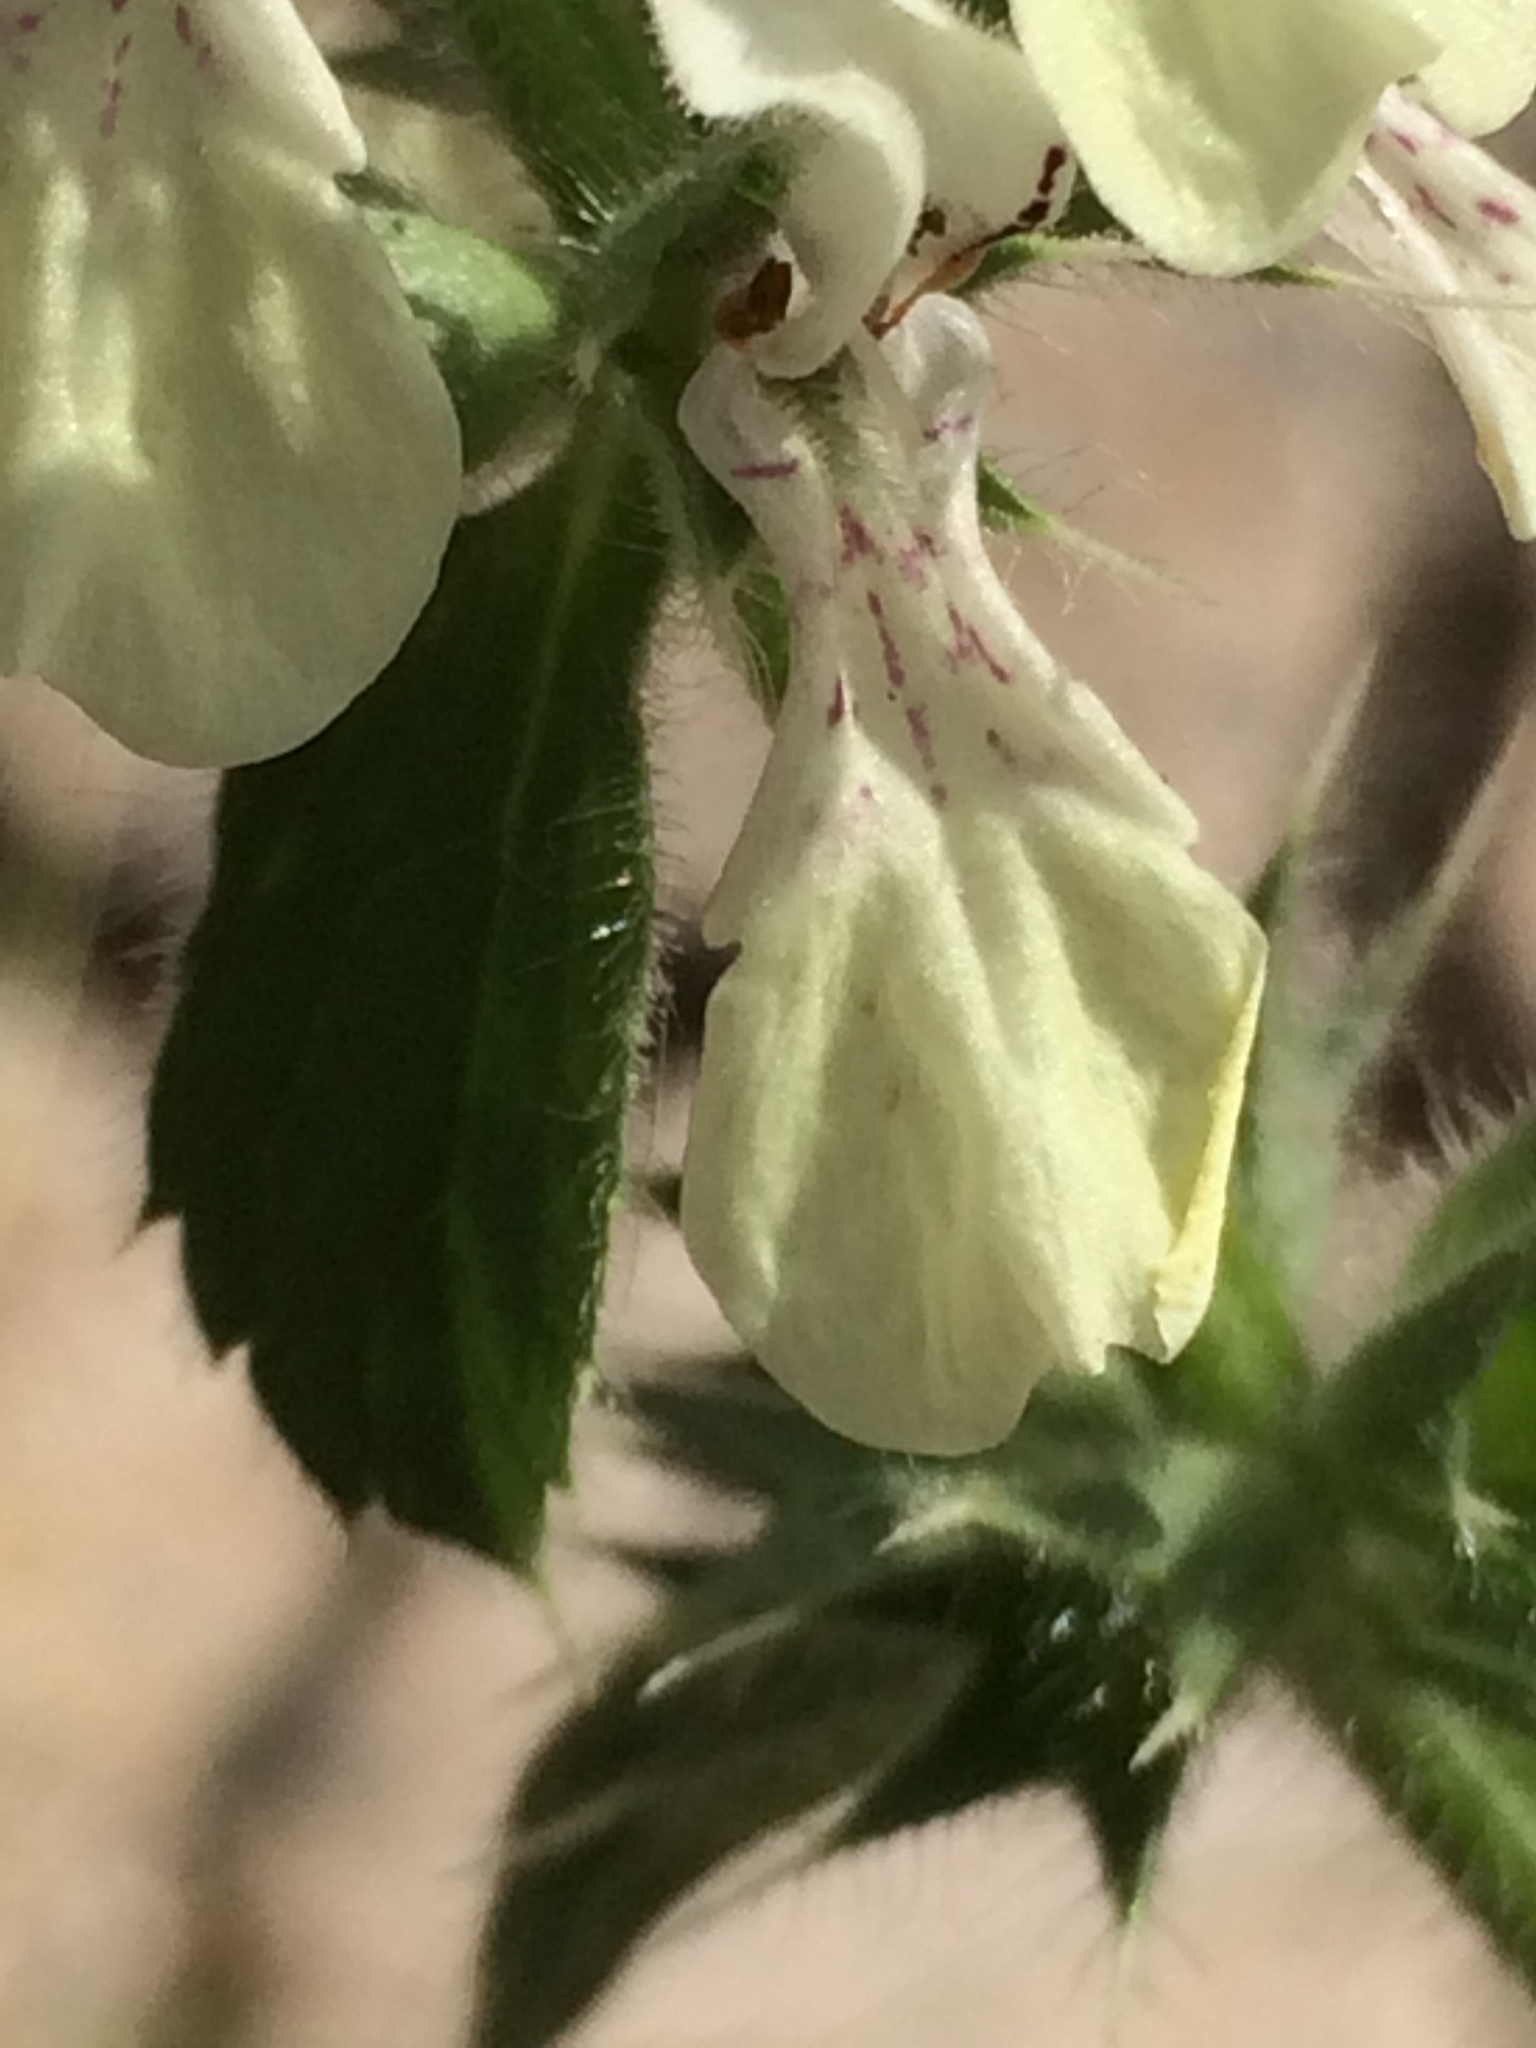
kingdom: Plantae
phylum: Tracheophyta
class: Magnoliopsida
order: Lamiales
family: Lamiaceae
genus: Stachys
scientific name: Stachys ocymastrum
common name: Italian hedgenettle
